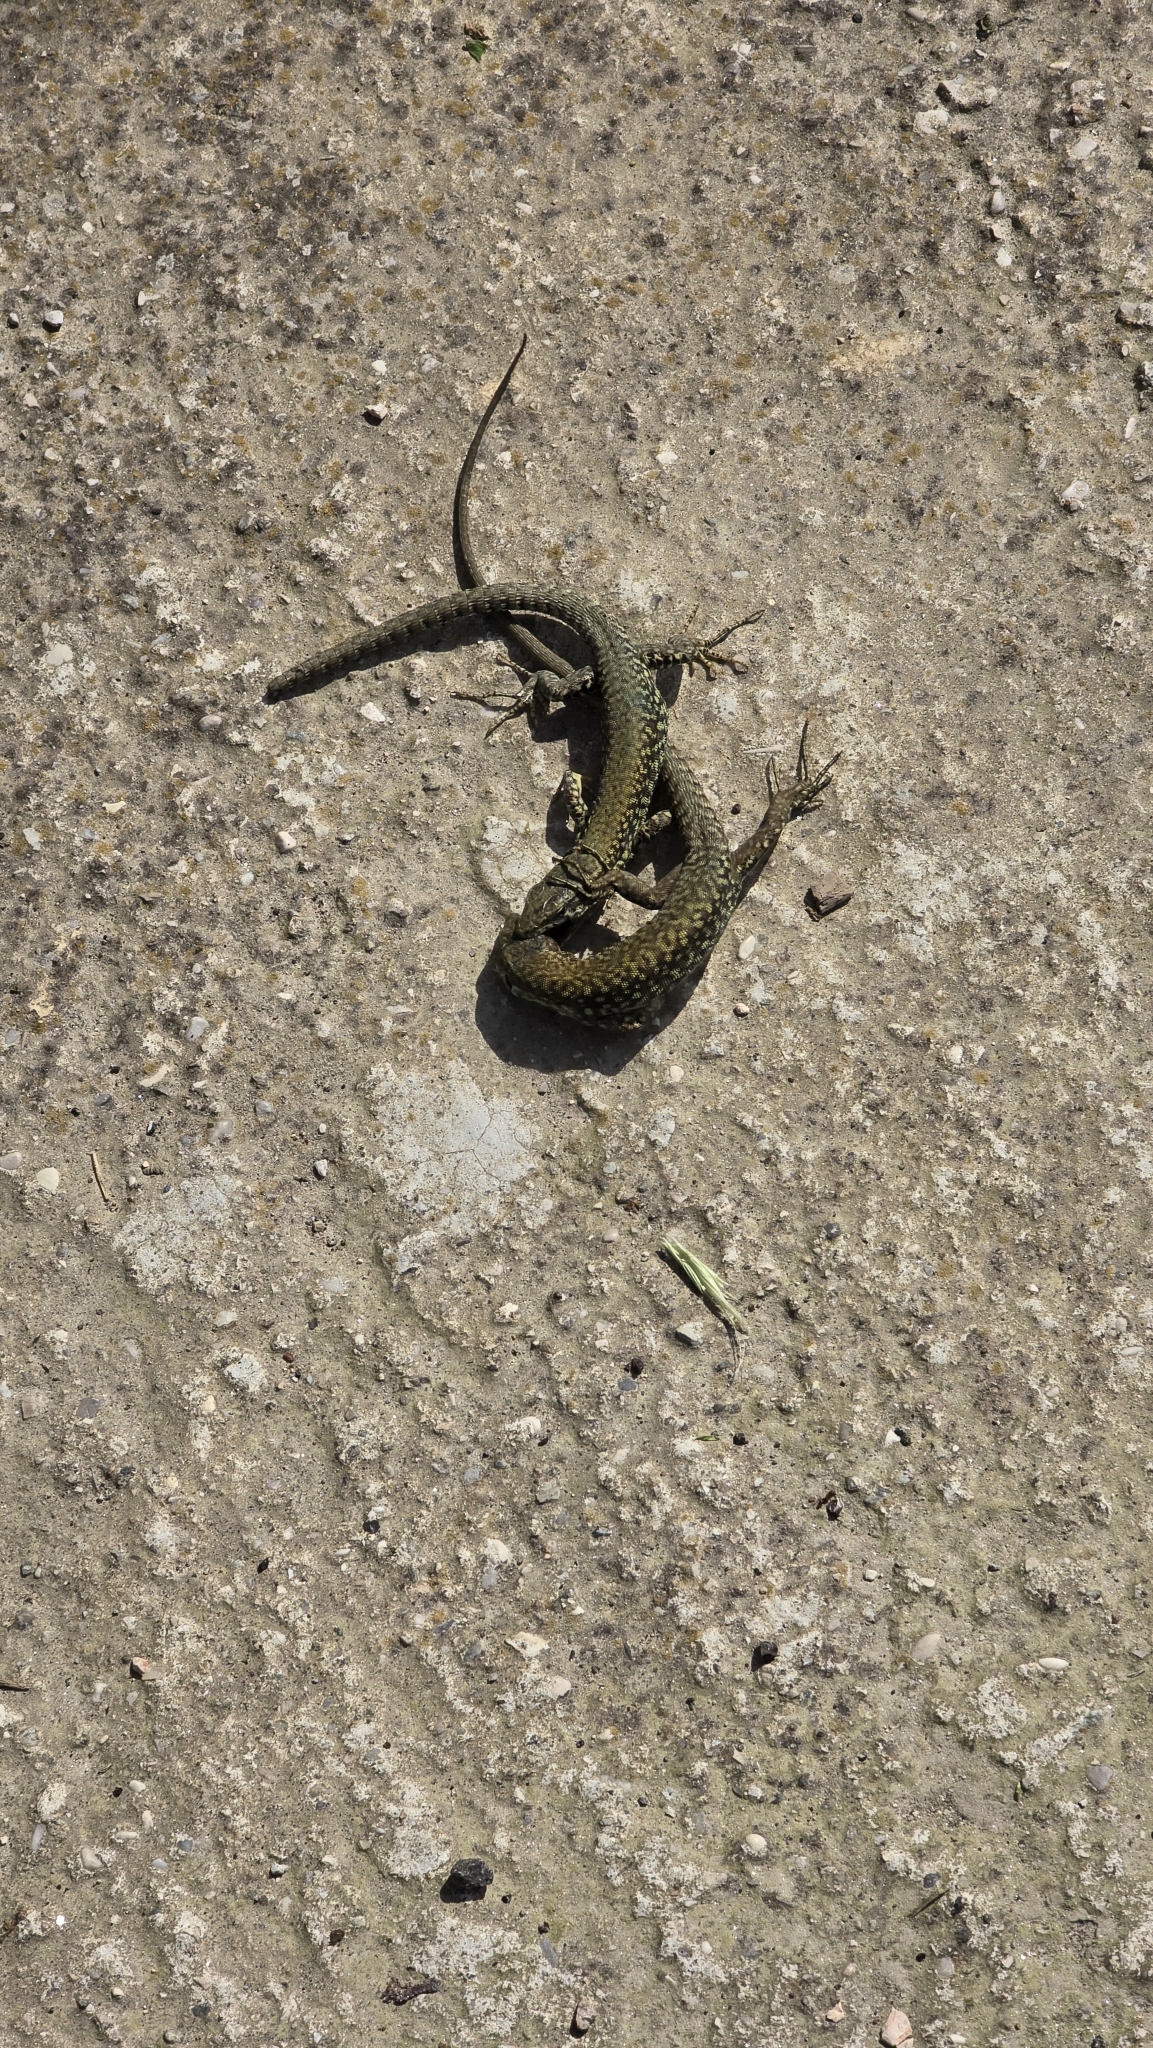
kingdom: Animalia
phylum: Chordata
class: Squamata
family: Lacertidae
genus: Podarcis
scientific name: Podarcis muralis
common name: Common wall lizard
